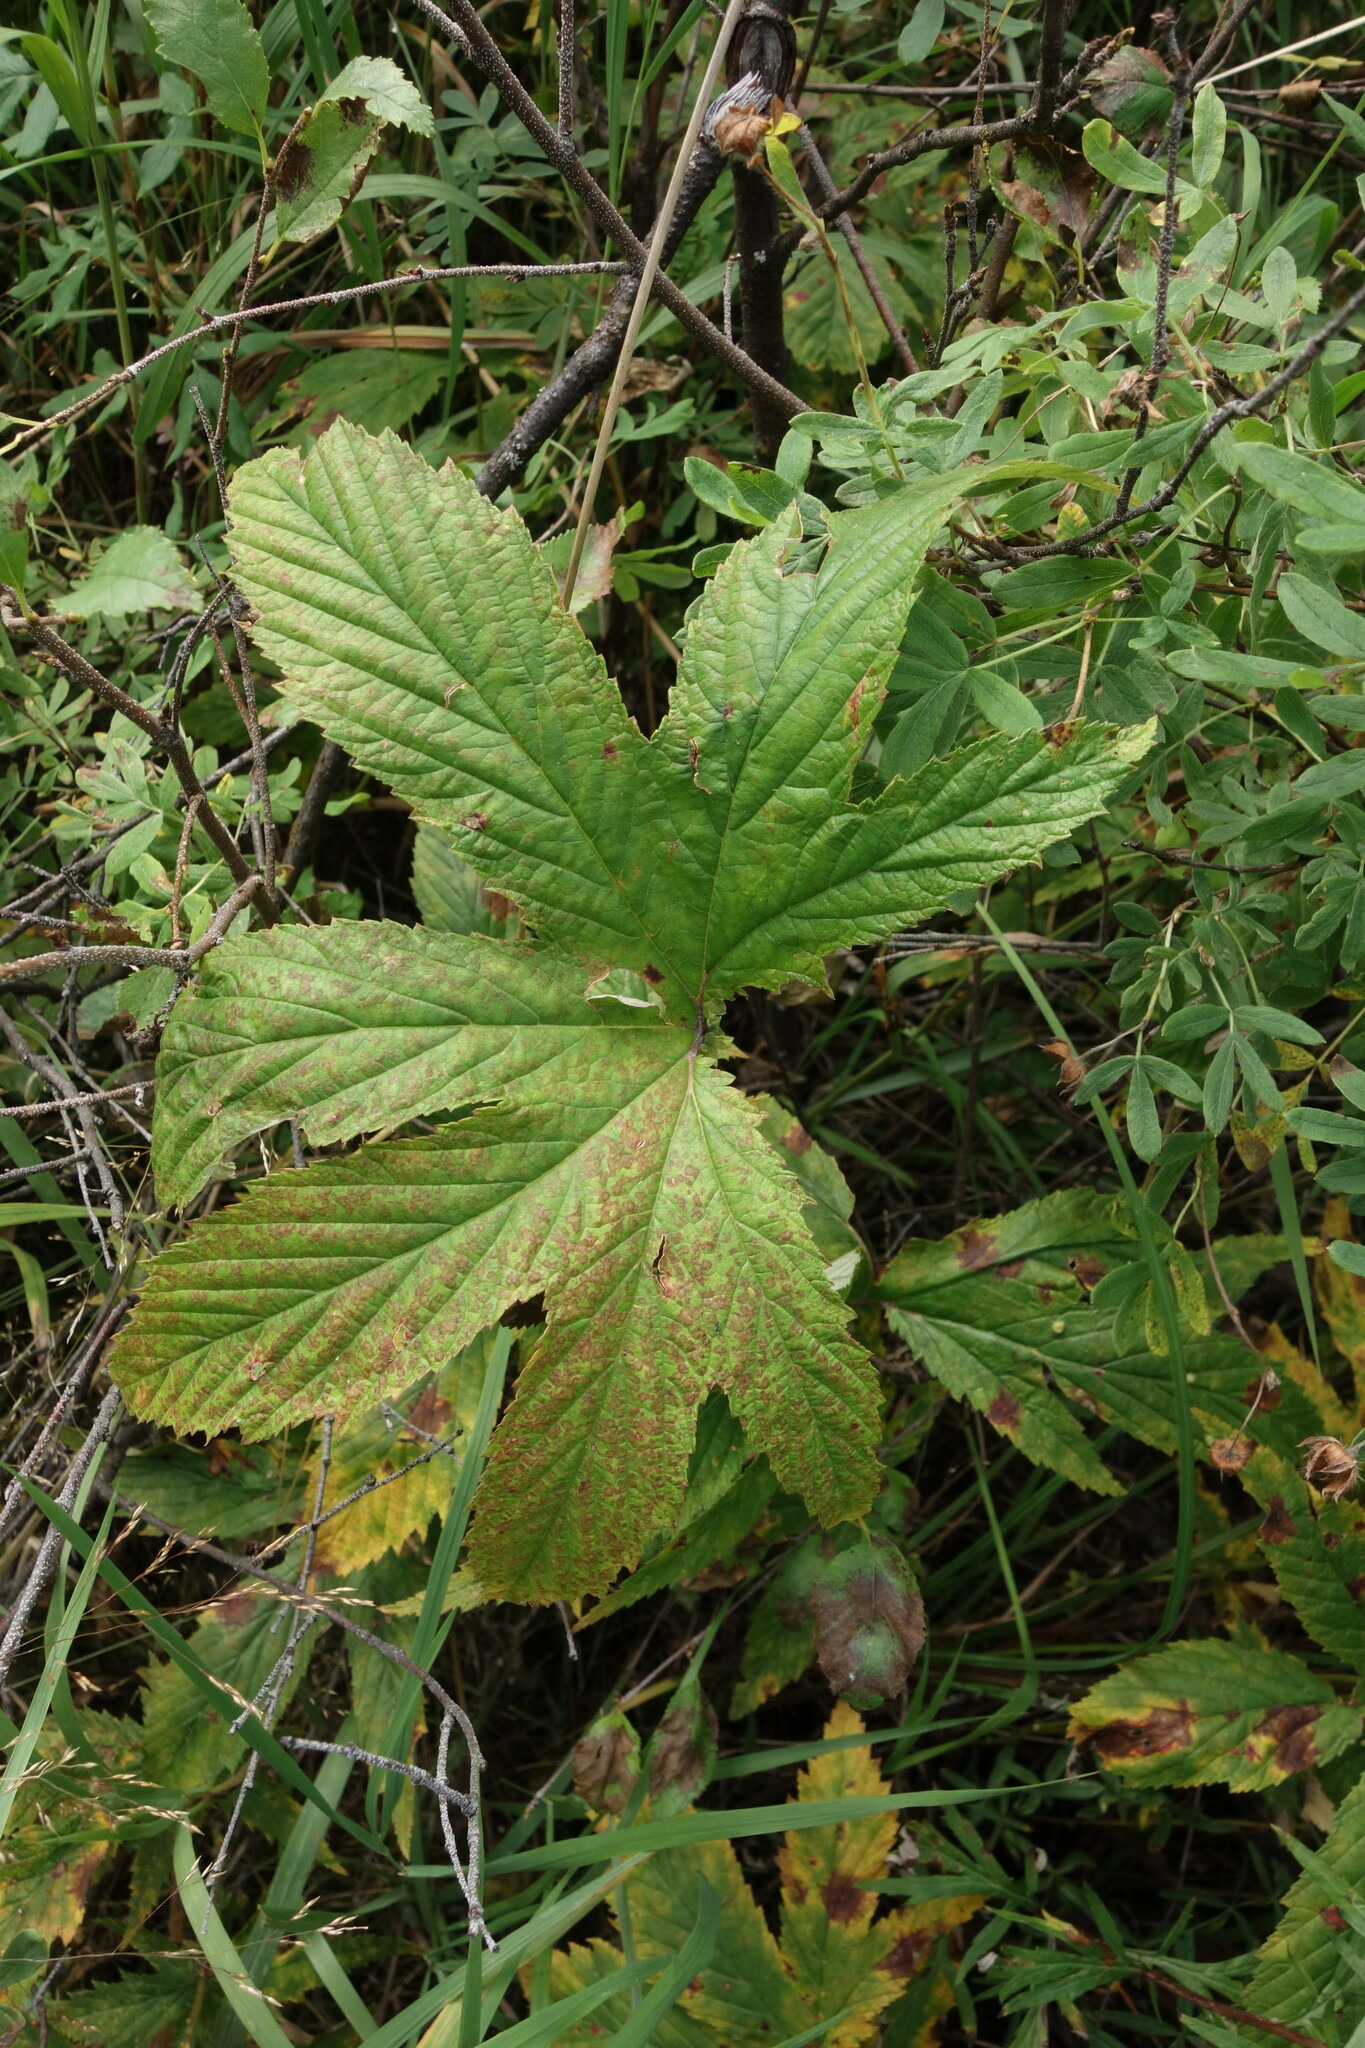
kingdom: Plantae
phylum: Tracheophyta
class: Magnoliopsida
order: Rosales
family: Rosaceae
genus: Filipendula
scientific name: Filipendula digitata
